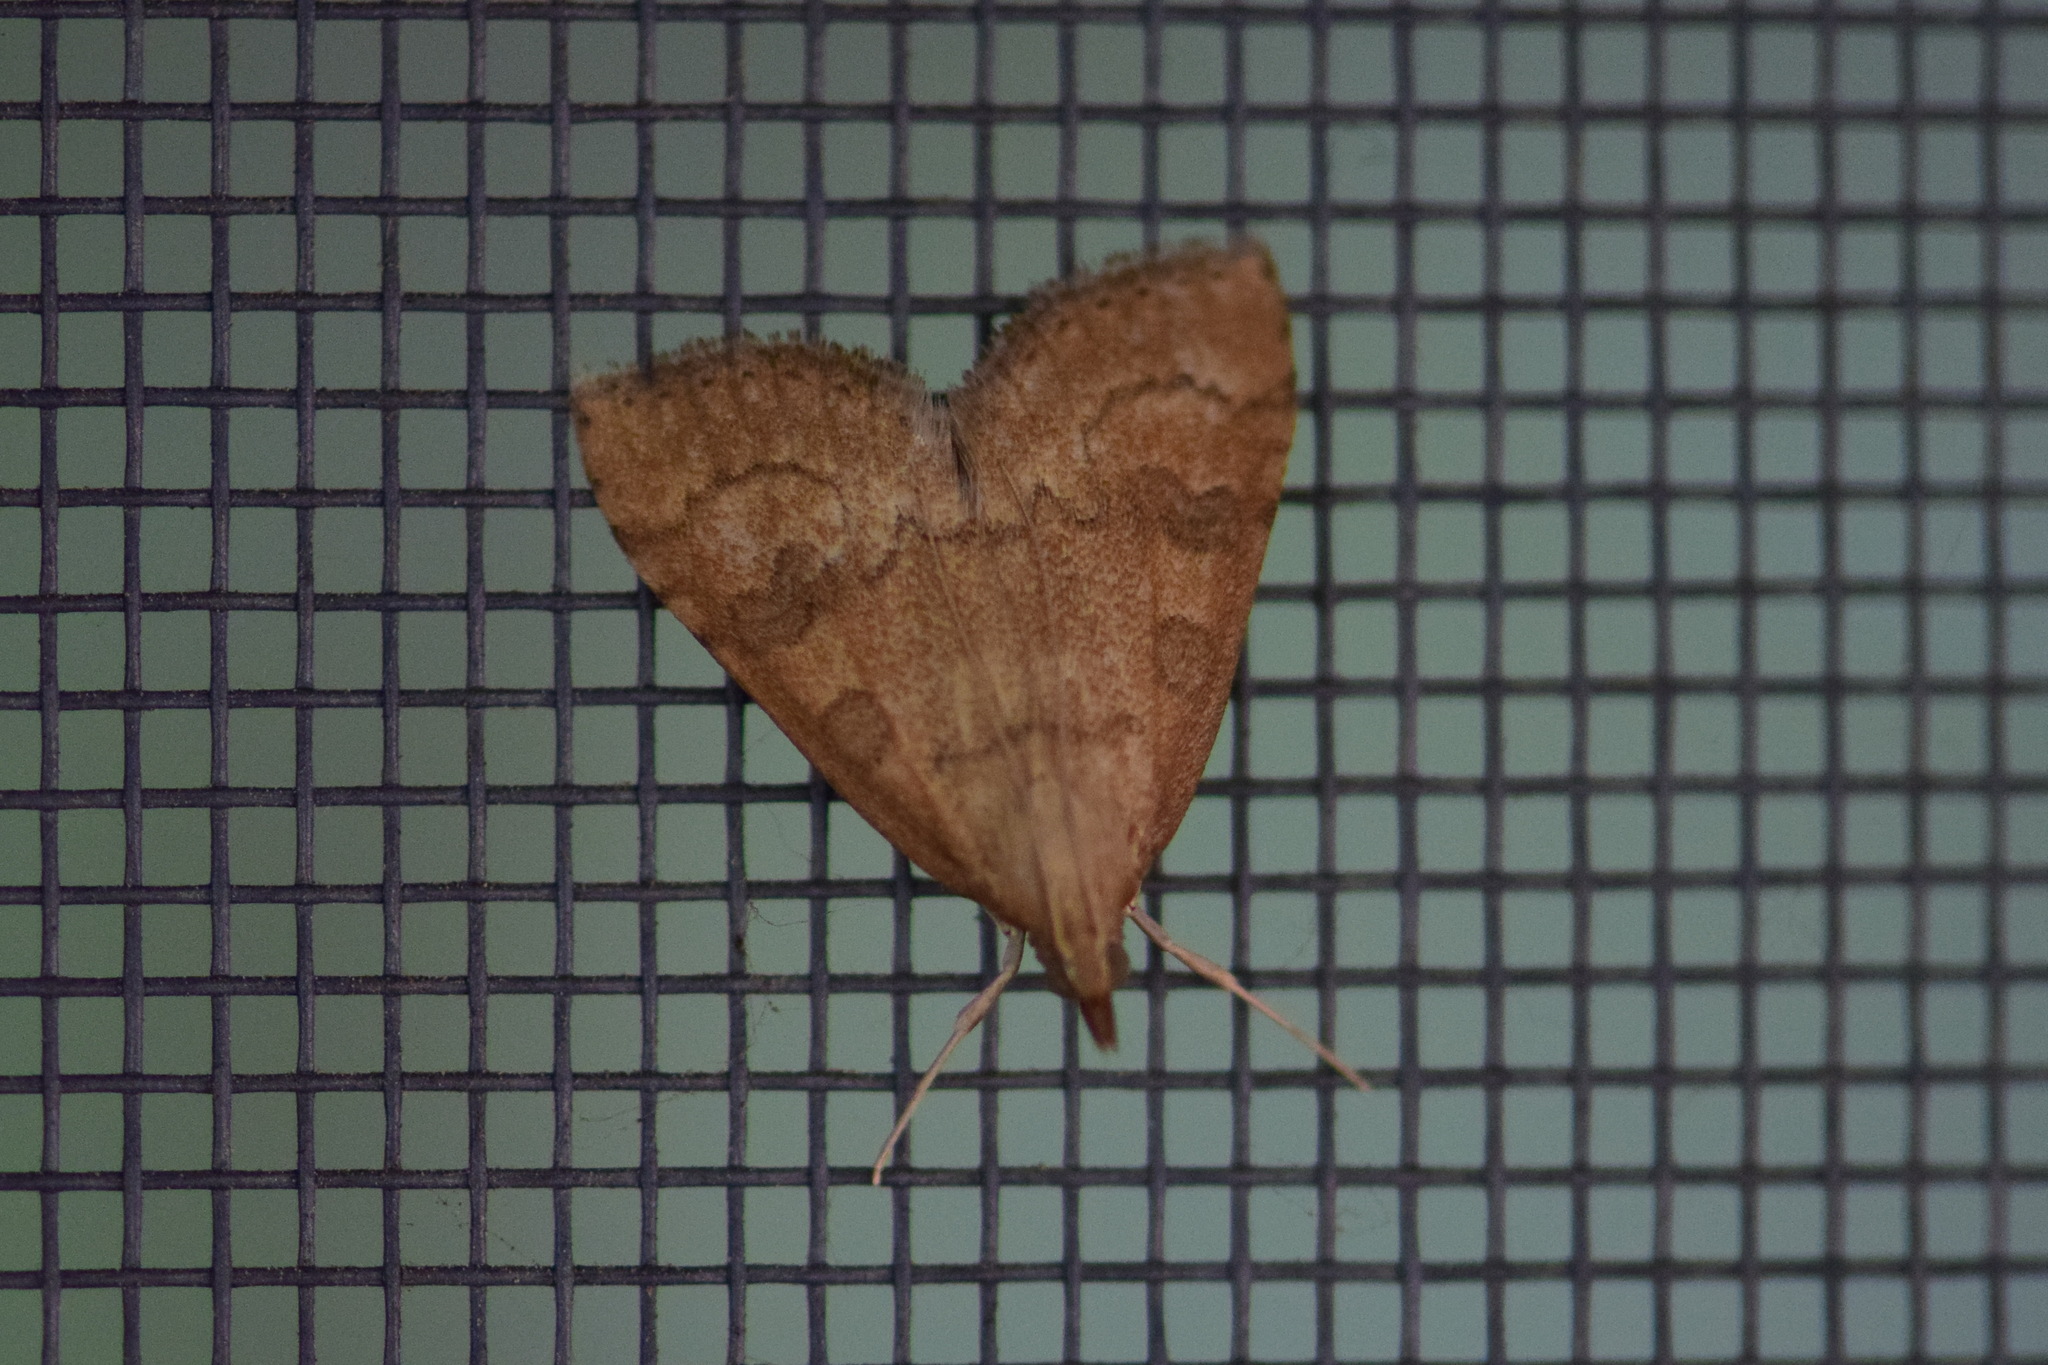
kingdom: Animalia
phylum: Arthropoda
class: Insecta
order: Lepidoptera
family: Crambidae
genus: Udea
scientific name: Udea fulvalis
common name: Fulvous pearl
